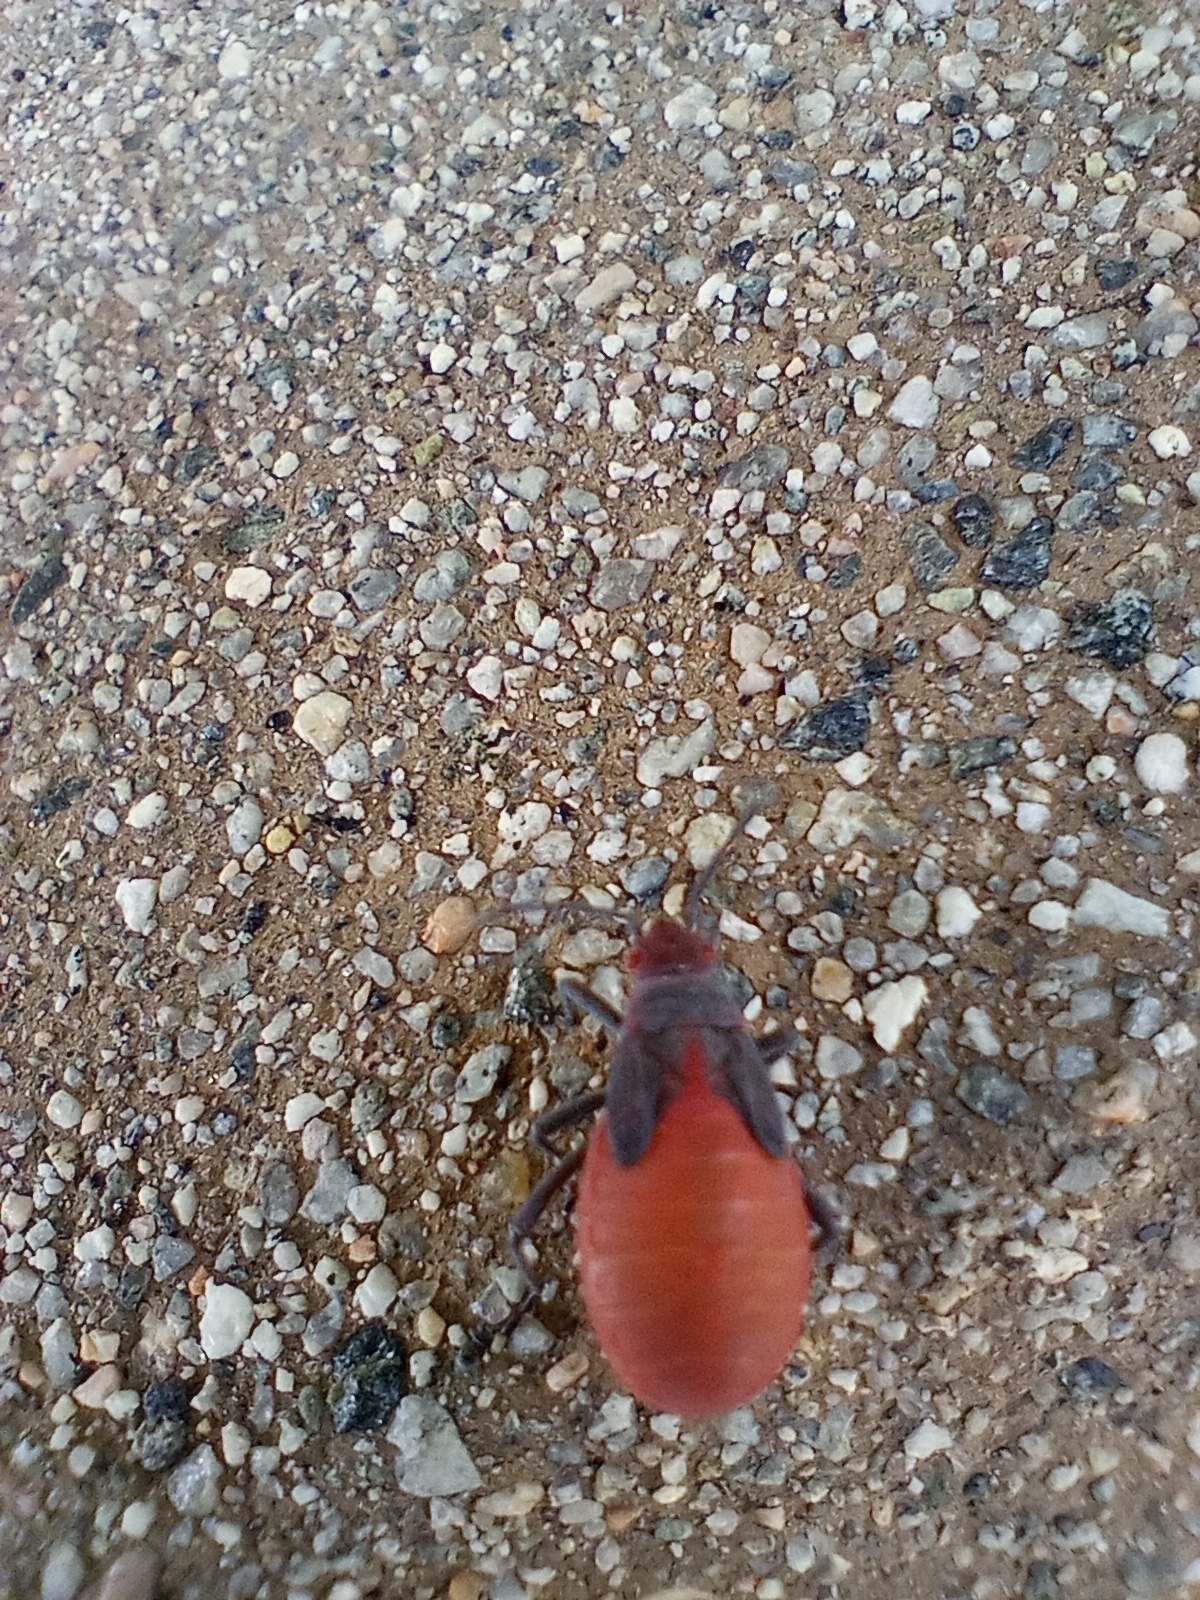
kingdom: Animalia
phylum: Arthropoda
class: Insecta
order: Hemiptera
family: Rhopalidae
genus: Jadera
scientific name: Jadera haematoloma
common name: Red-shouldered bug
